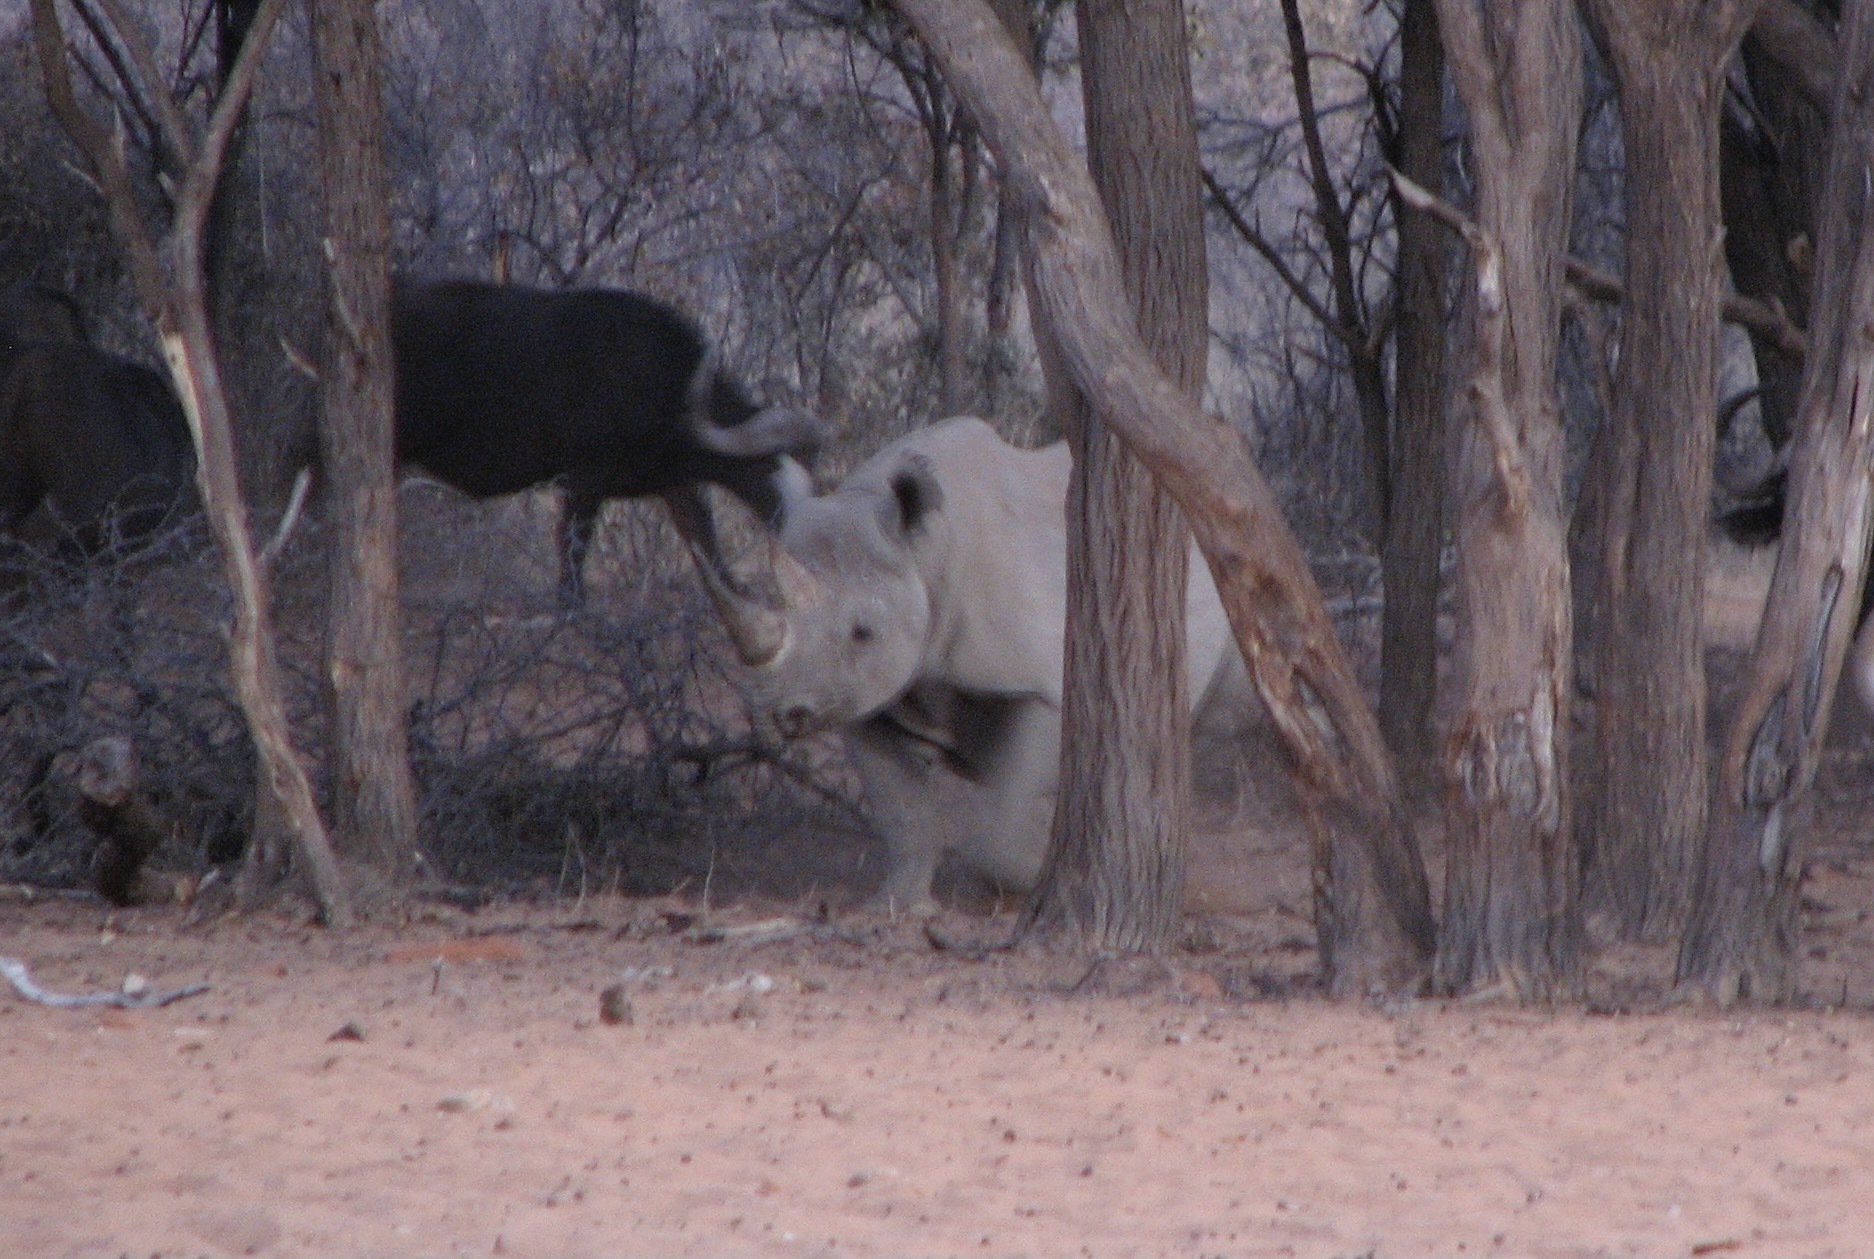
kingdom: Animalia
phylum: Chordata
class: Mammalia
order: Perissodactyla
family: Rhinocerotidae
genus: Diceros
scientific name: Diceros bicornis
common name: Black rhinoceros
